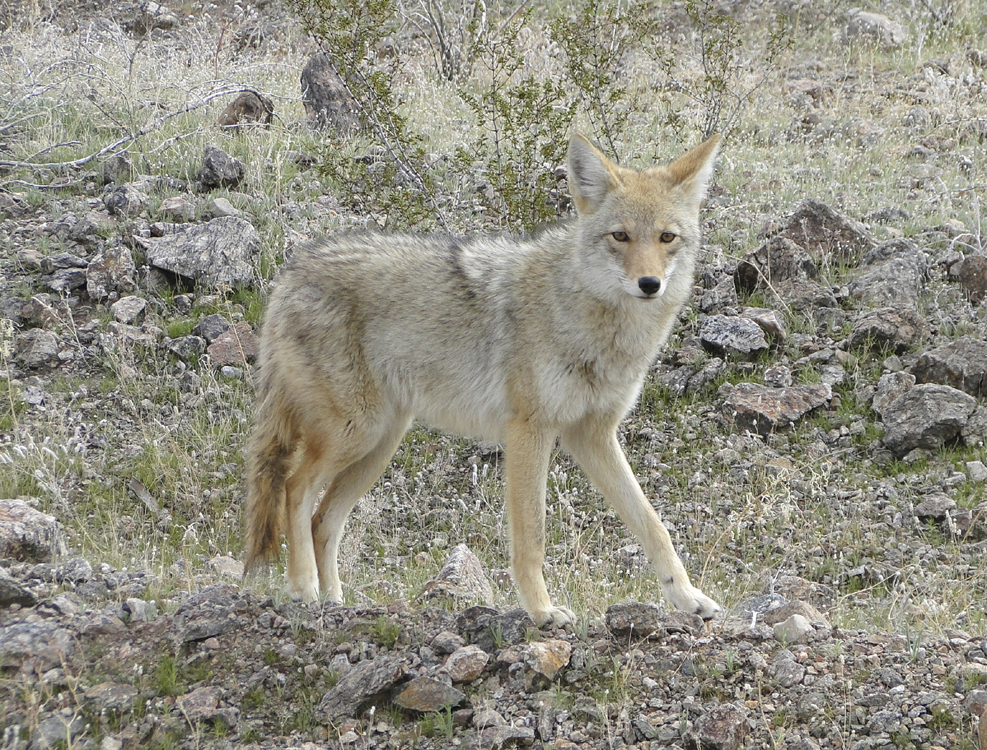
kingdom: Animalia
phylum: Chordata
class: Mammalia
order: Carnivora
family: Canidae
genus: Canis
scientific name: Canis latrans
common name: Coyote
